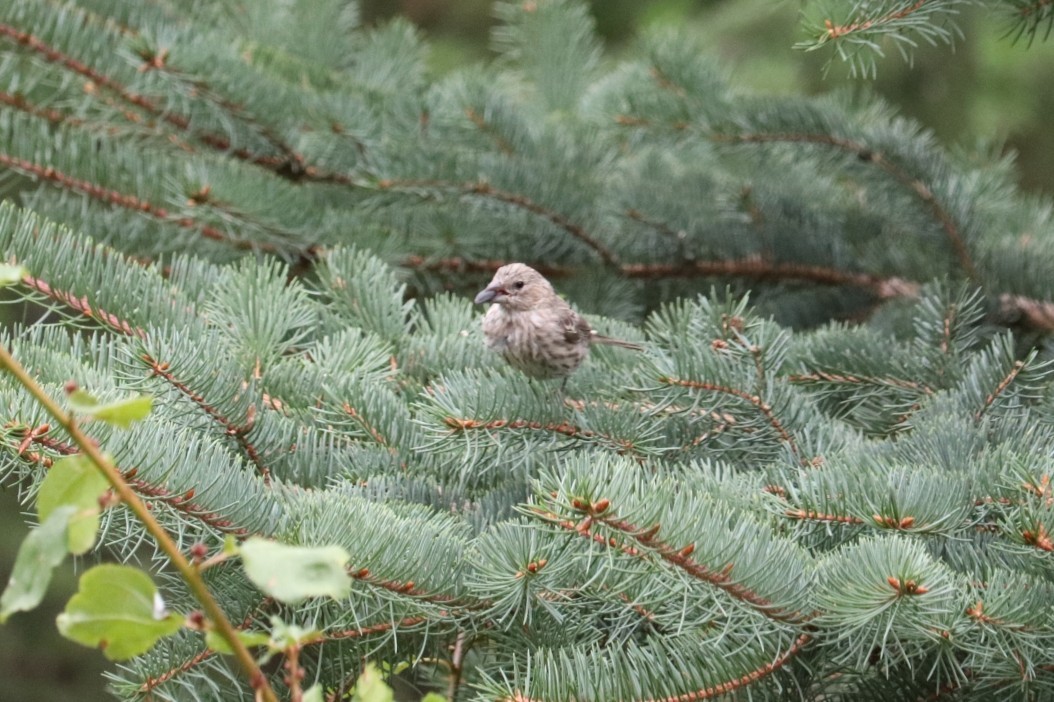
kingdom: Animalia
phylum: Chordata
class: Aves
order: Passeriformes
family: Fringillidae
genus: Haemorhous
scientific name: Haemorhous mexicanus
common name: House finch
